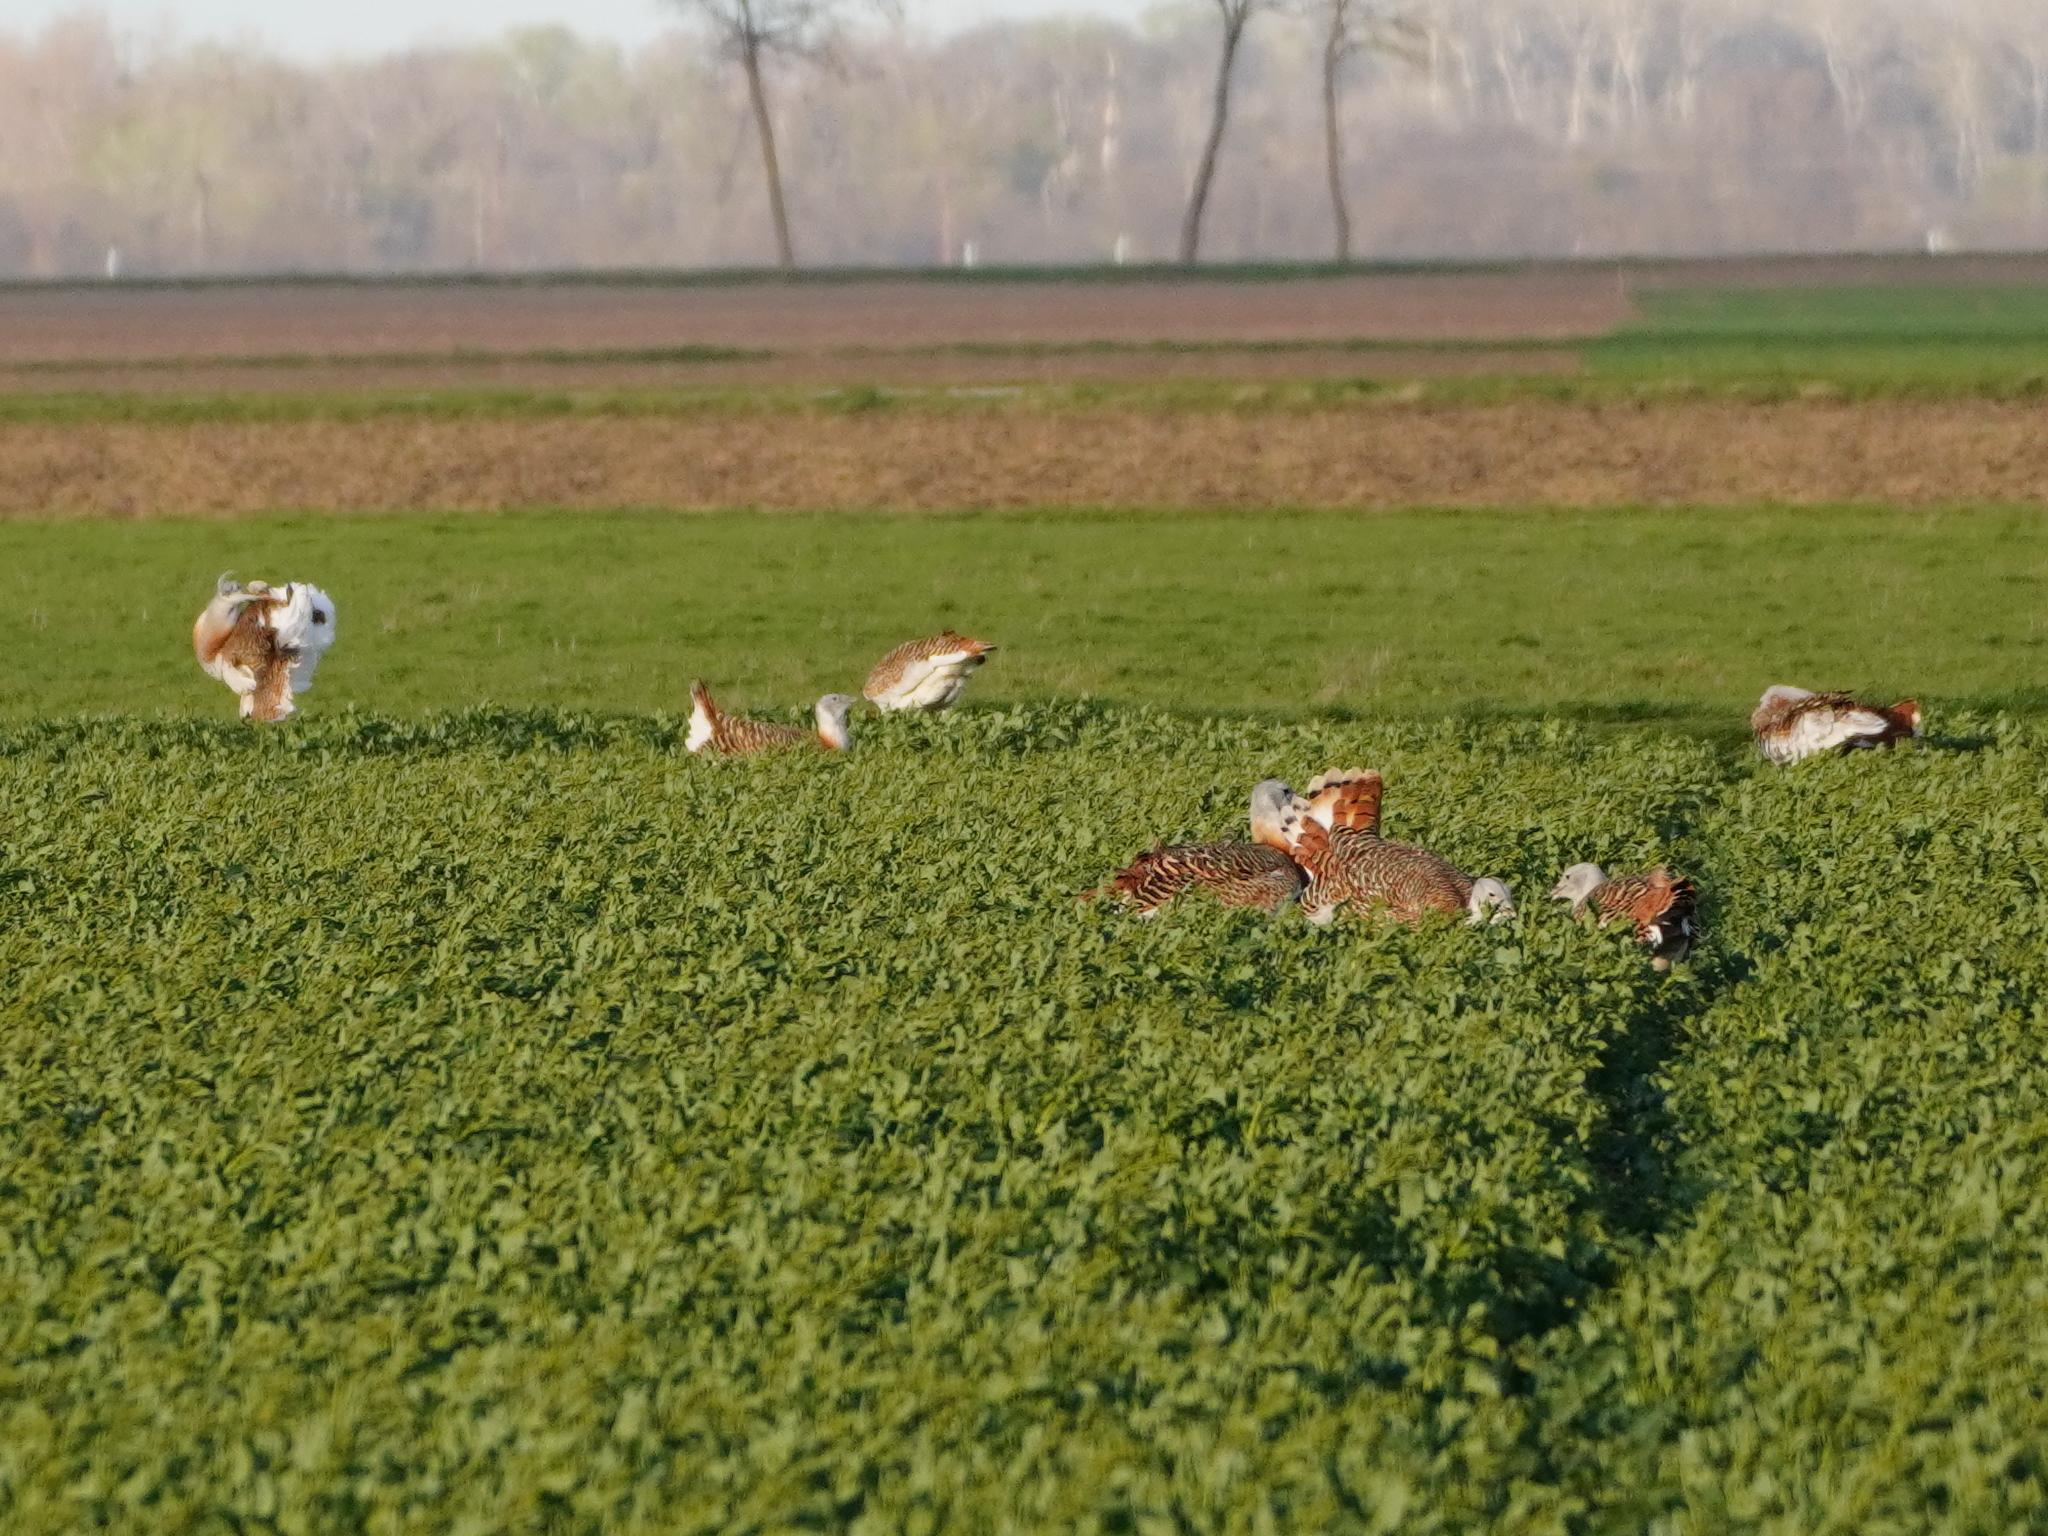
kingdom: Animalia
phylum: Chordata
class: Aves
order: Otidiformes
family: Otididae
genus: Otis
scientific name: Otis tarda
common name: Great bustard
